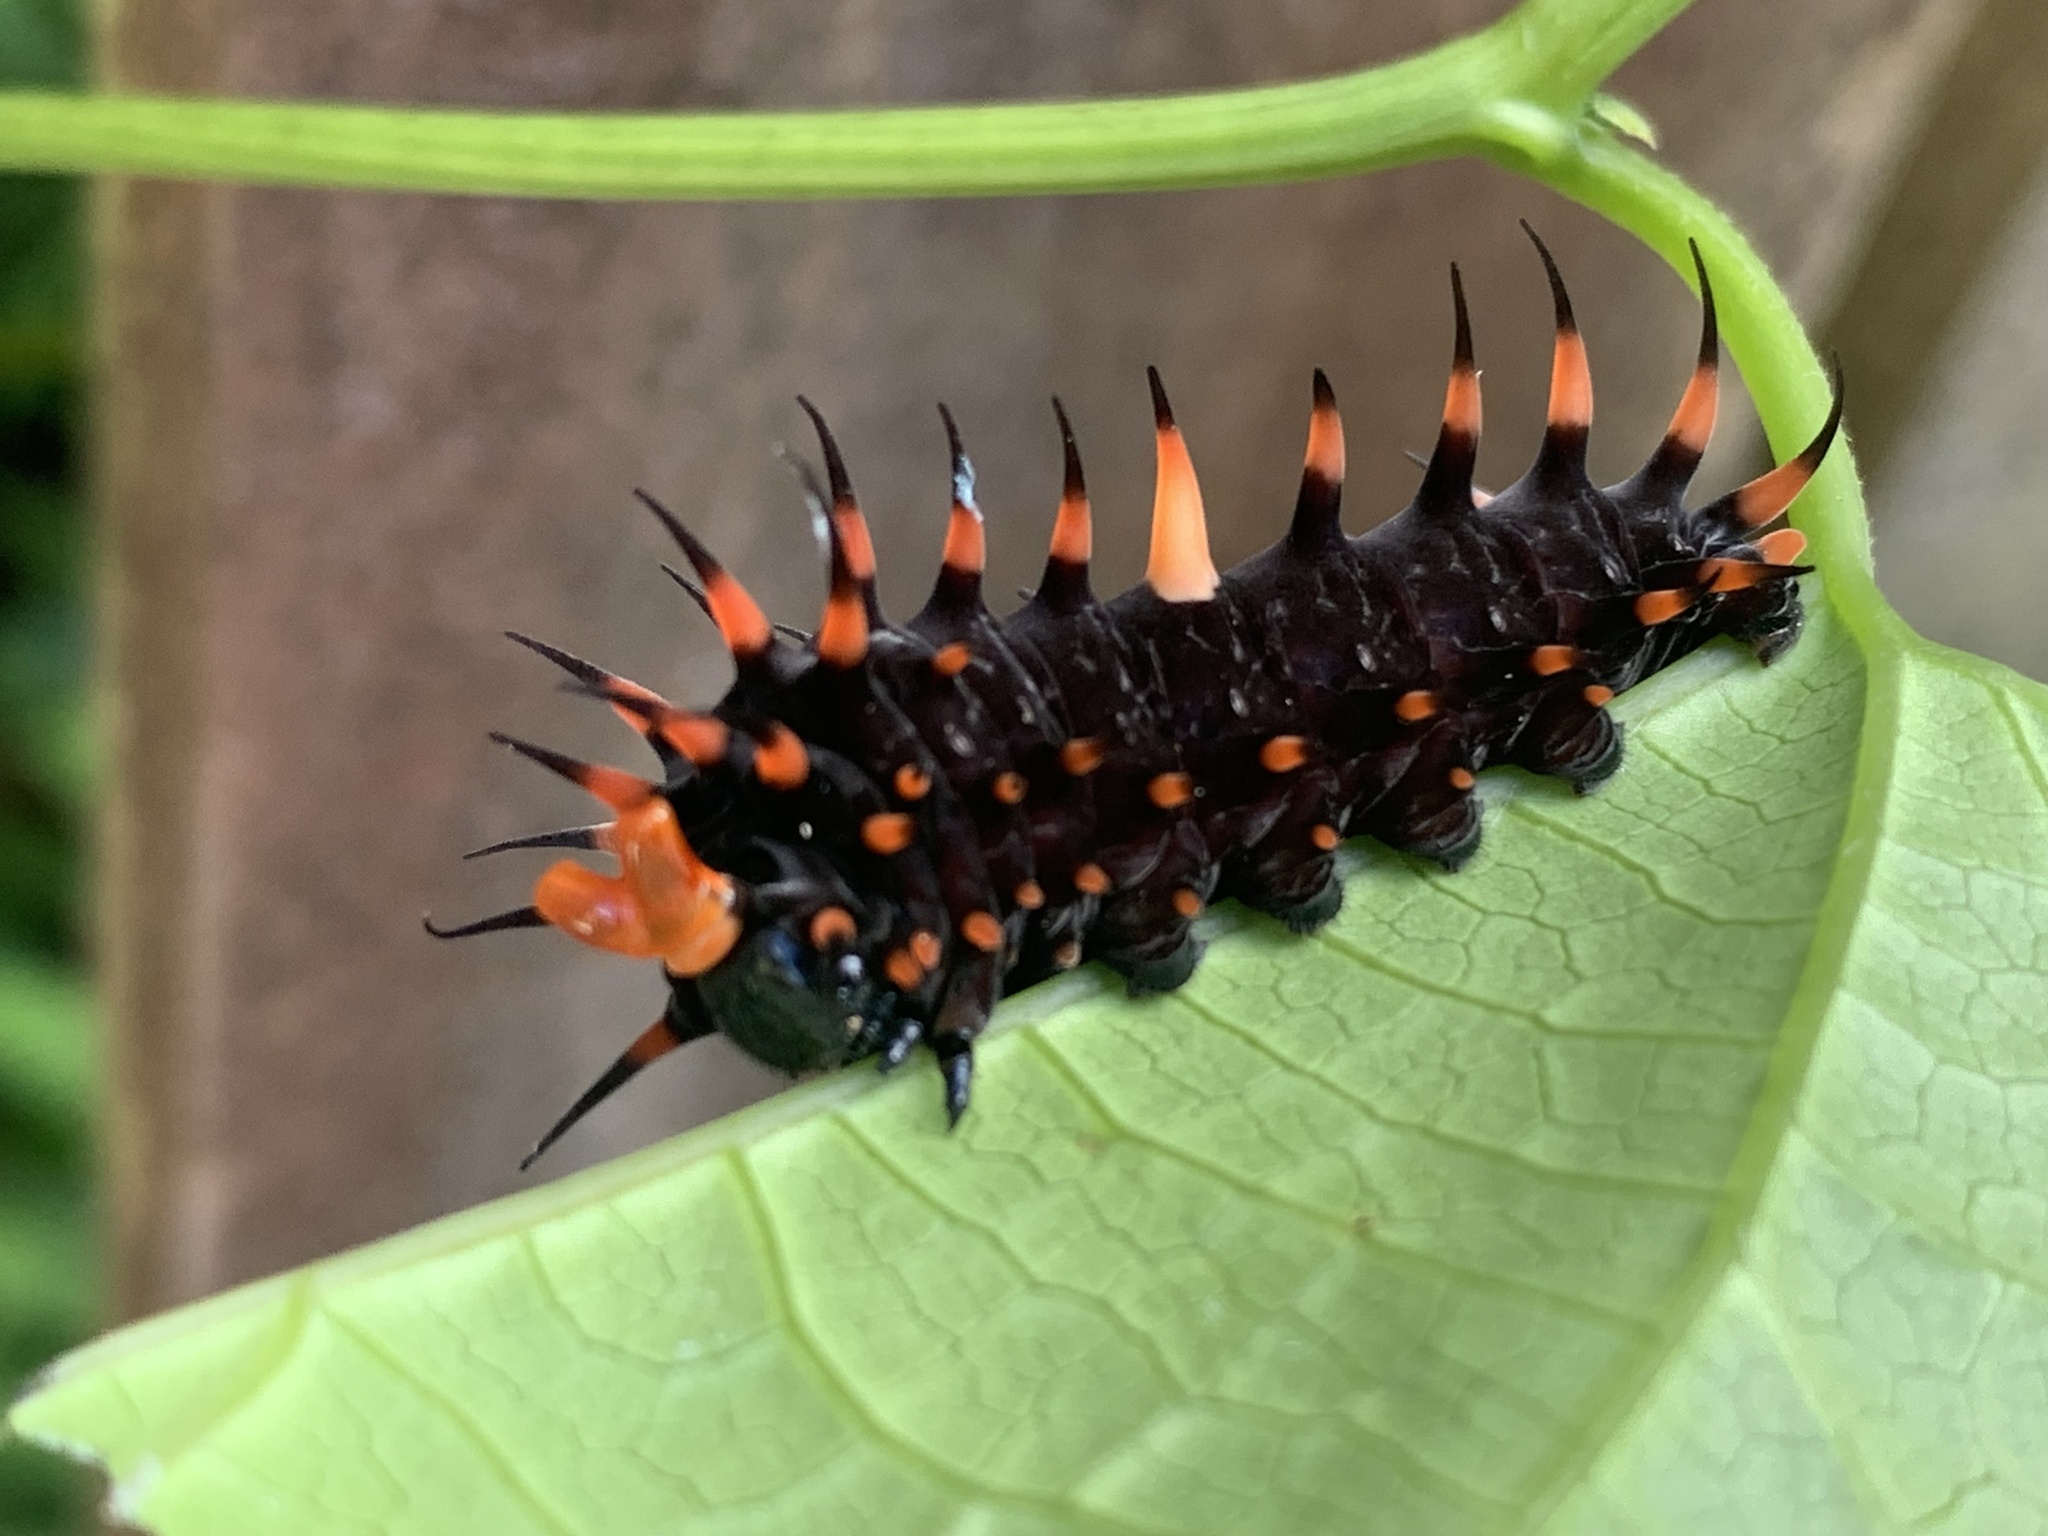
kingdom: Animalia
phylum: Arthropoda
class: Insecta
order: Lepidoptera
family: Papilionidae
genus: Ornithoptera
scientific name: Ornithoptera euphorion
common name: Cairns birdwing
